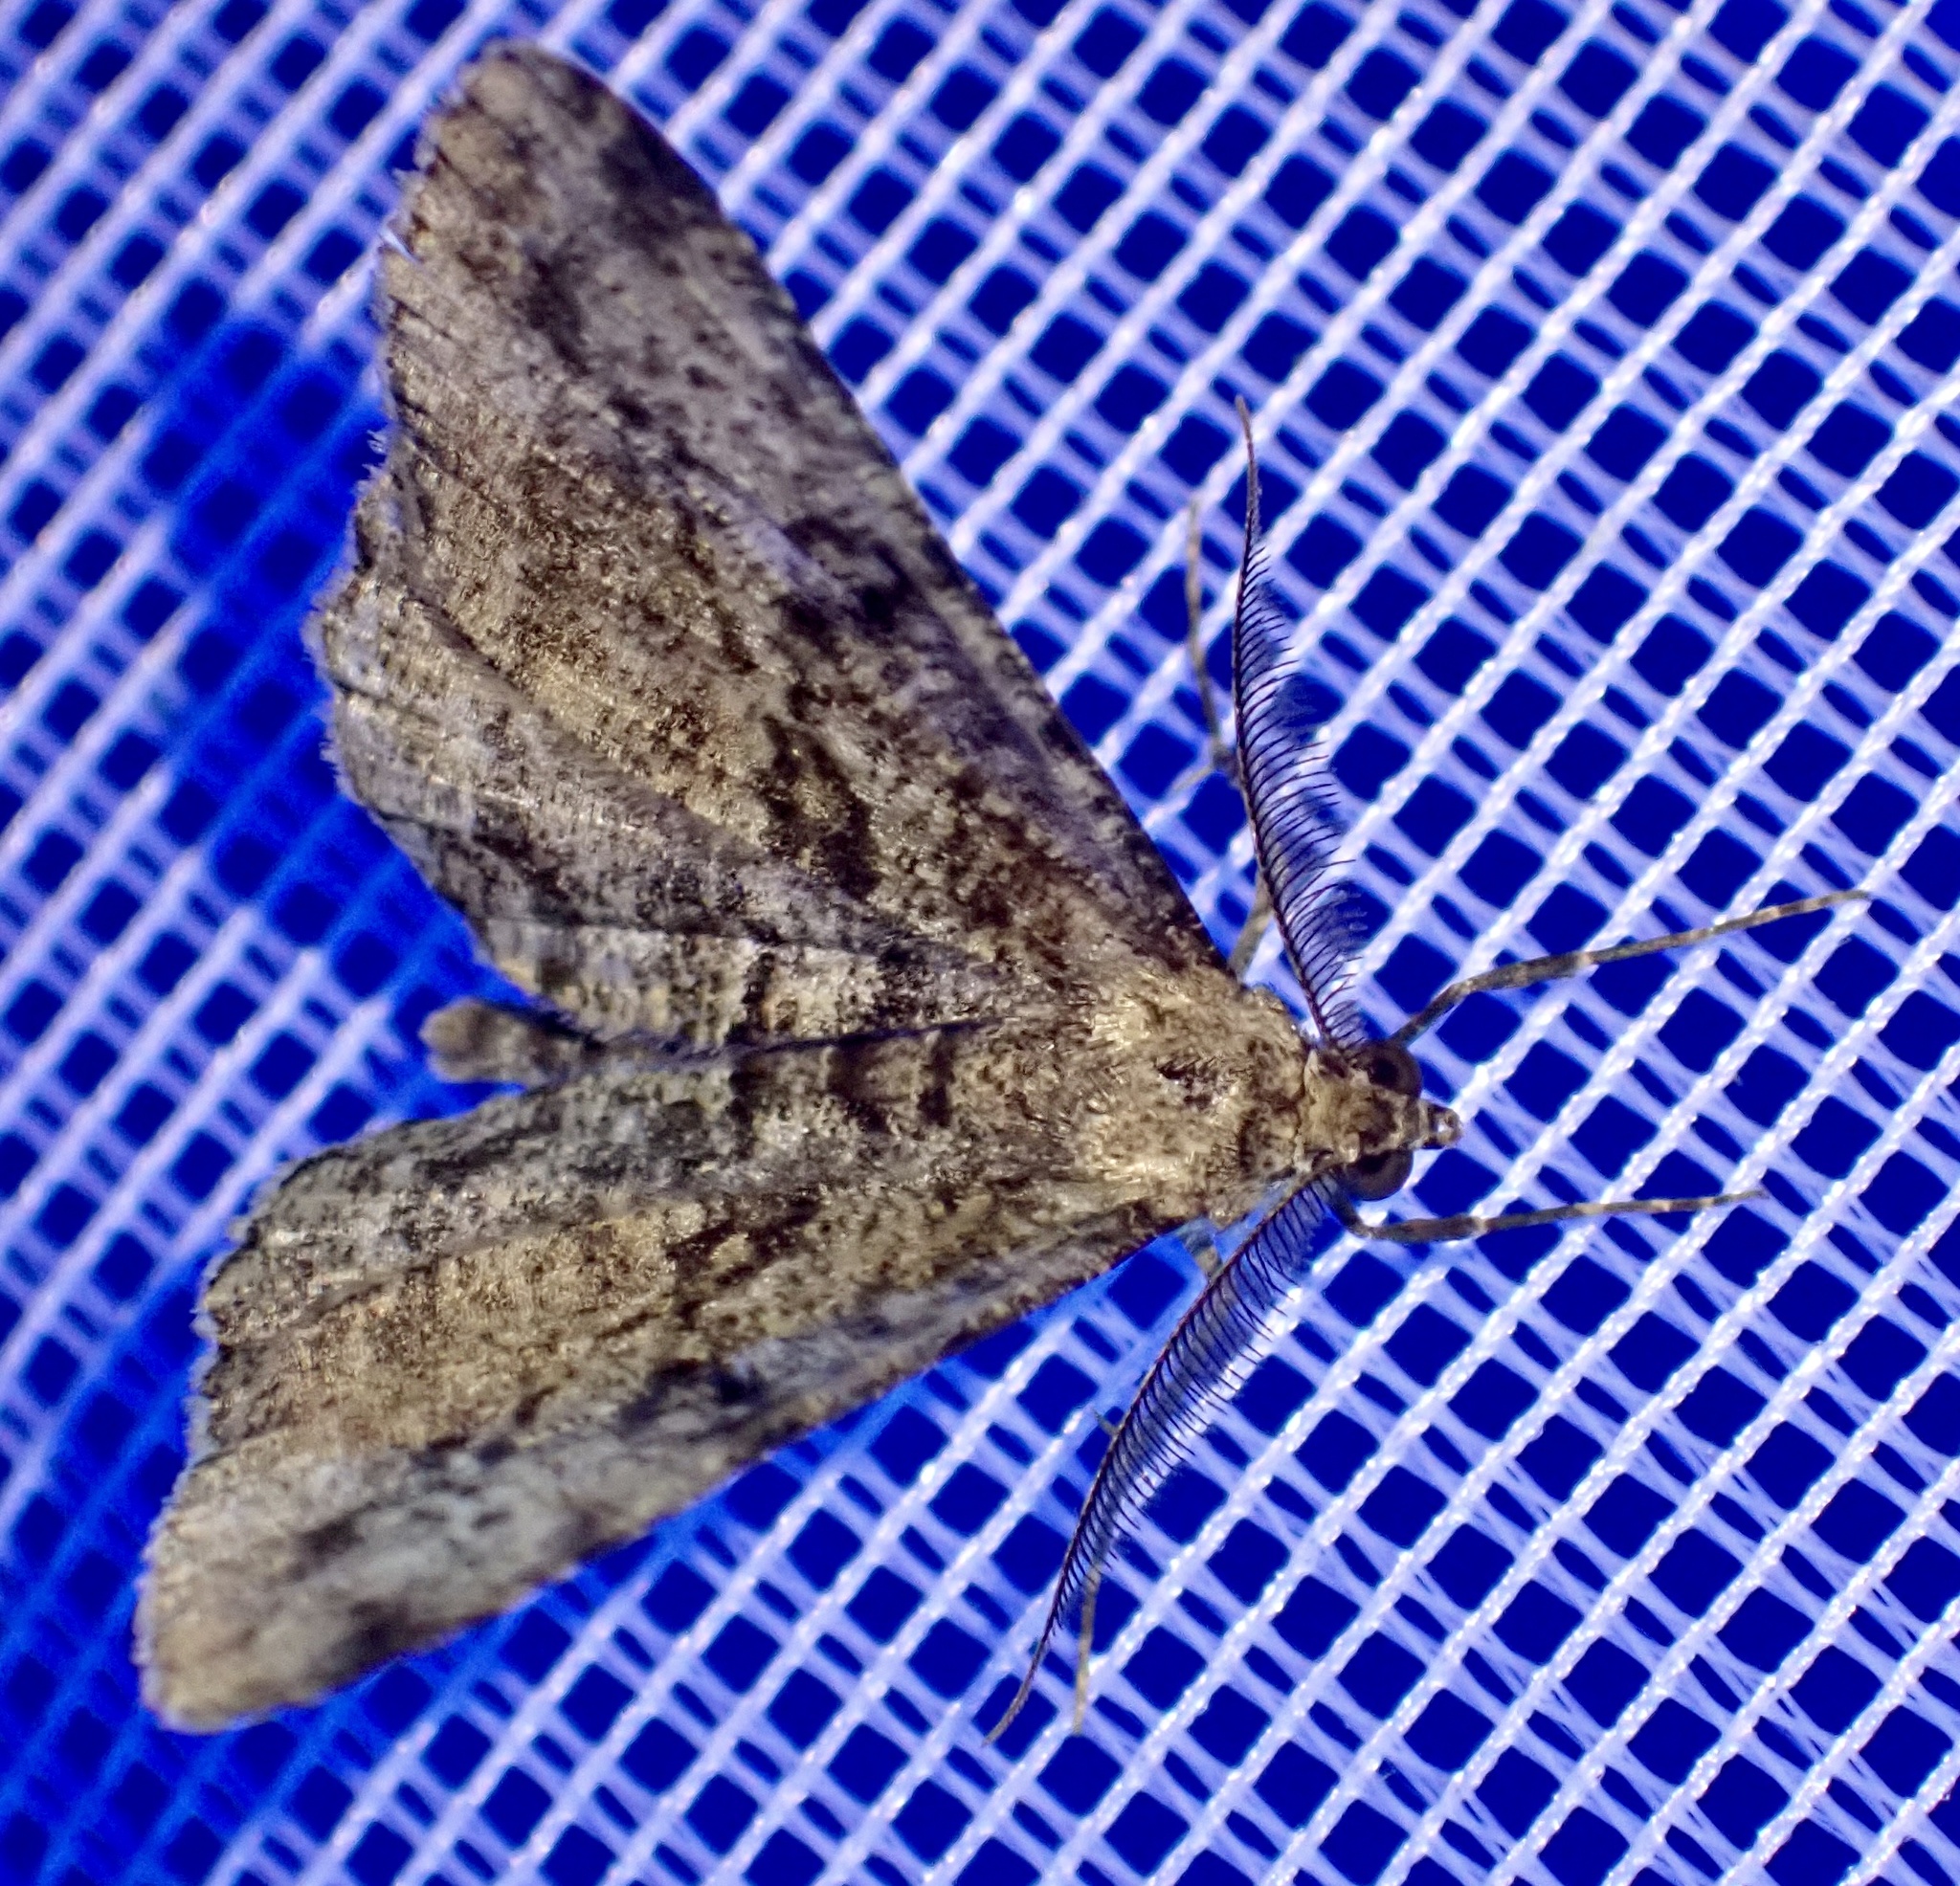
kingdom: Animalia
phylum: Arthropoda
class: Insecta
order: Lepidoptera
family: Geometridae
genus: Peribatodes
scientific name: Peribatodes rhomboidaria
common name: Willow beauty
